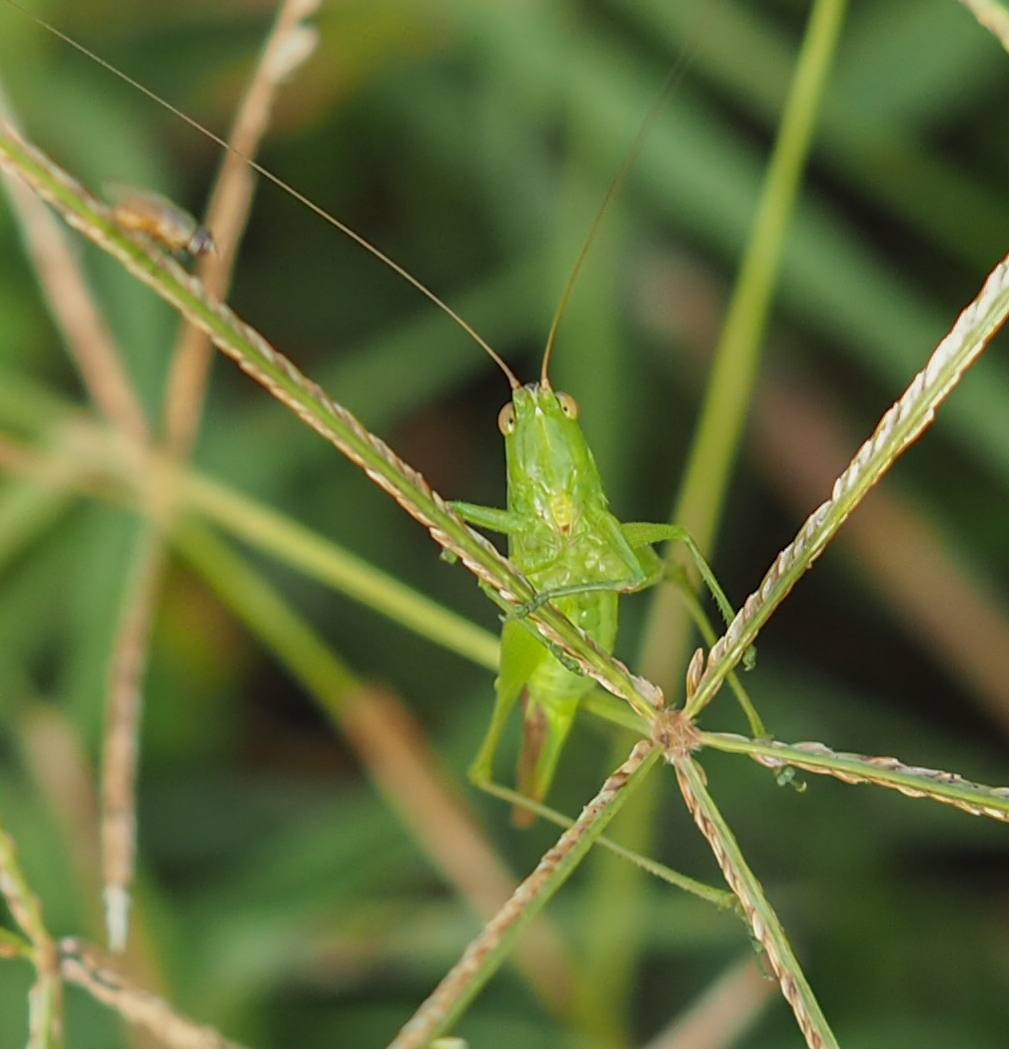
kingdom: Animalia
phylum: Arthropoda
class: Insecta
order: Orthoptera
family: Tettigoniidae
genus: Conocephalus
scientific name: Conocephalus fasciatus
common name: Slender meadow katydid
